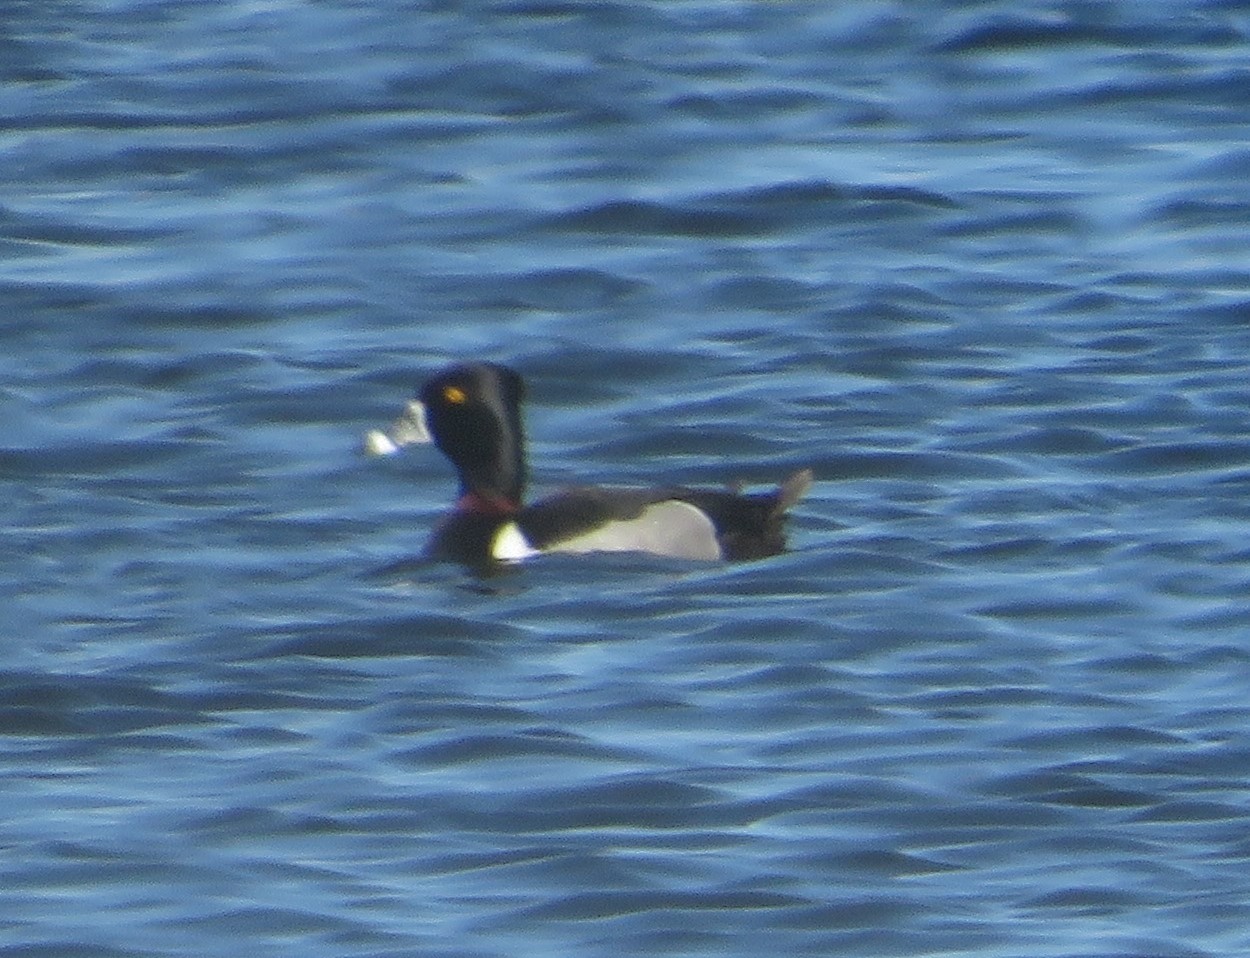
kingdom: Animalia
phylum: Chordata
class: Aves
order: Anseriformes
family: Anatidae
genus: Aythya
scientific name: Aythya collaris
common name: Ring-necked duck
